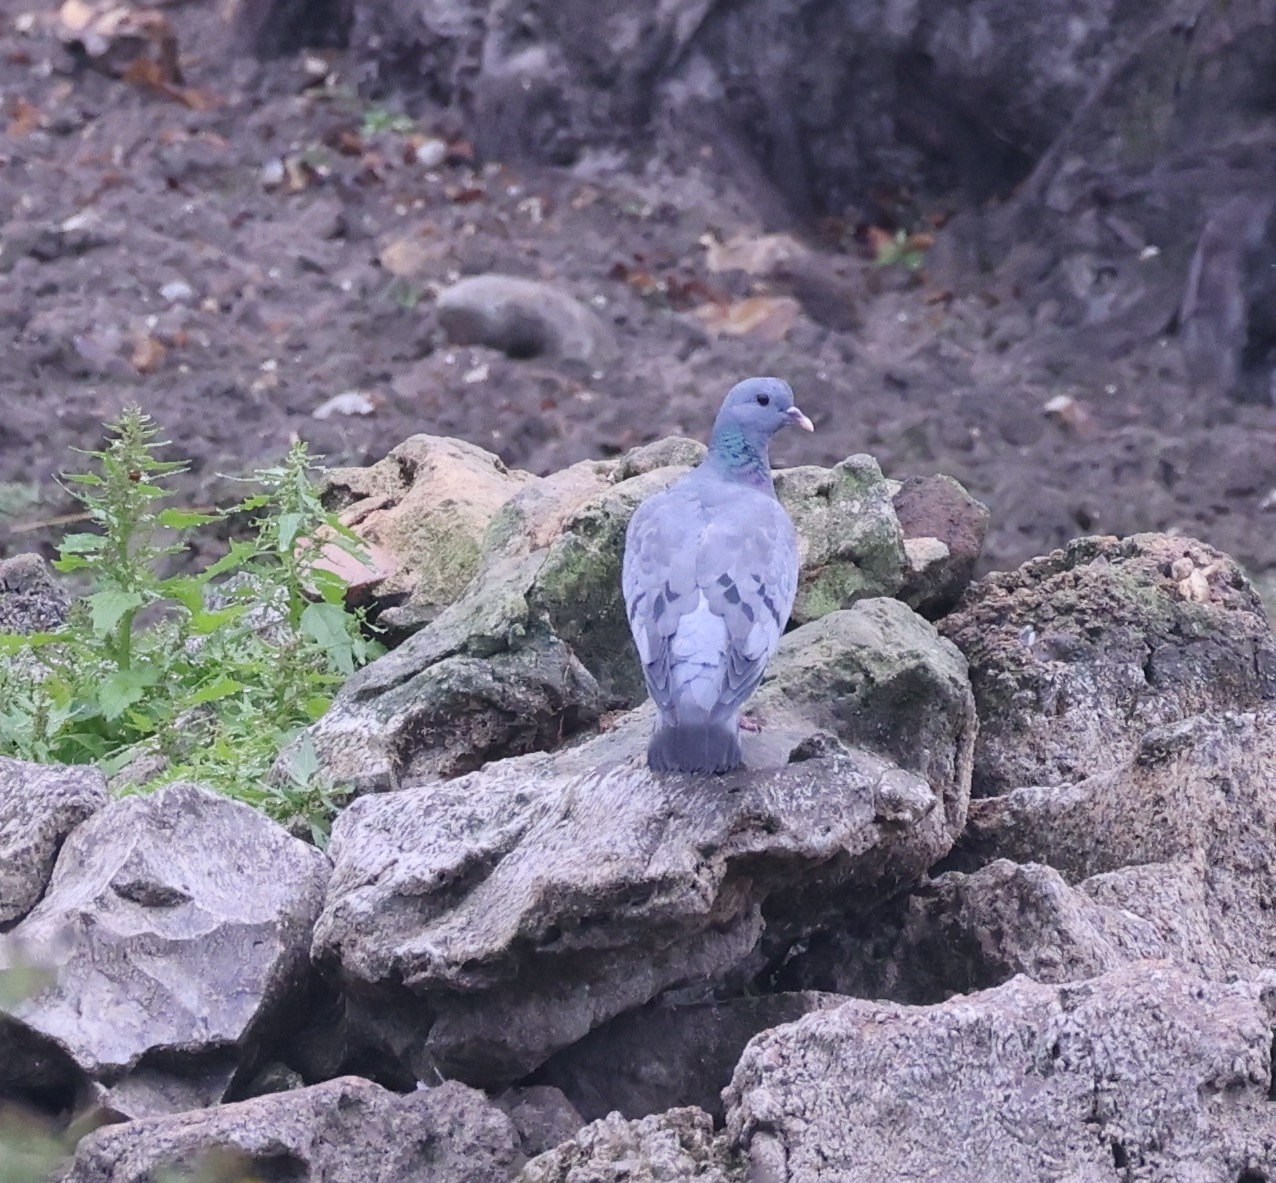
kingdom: Animalia
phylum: Chordata
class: Aves
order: Columbiformes
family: Columbidae
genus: Columba
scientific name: Columba oenas
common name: Stock dove
